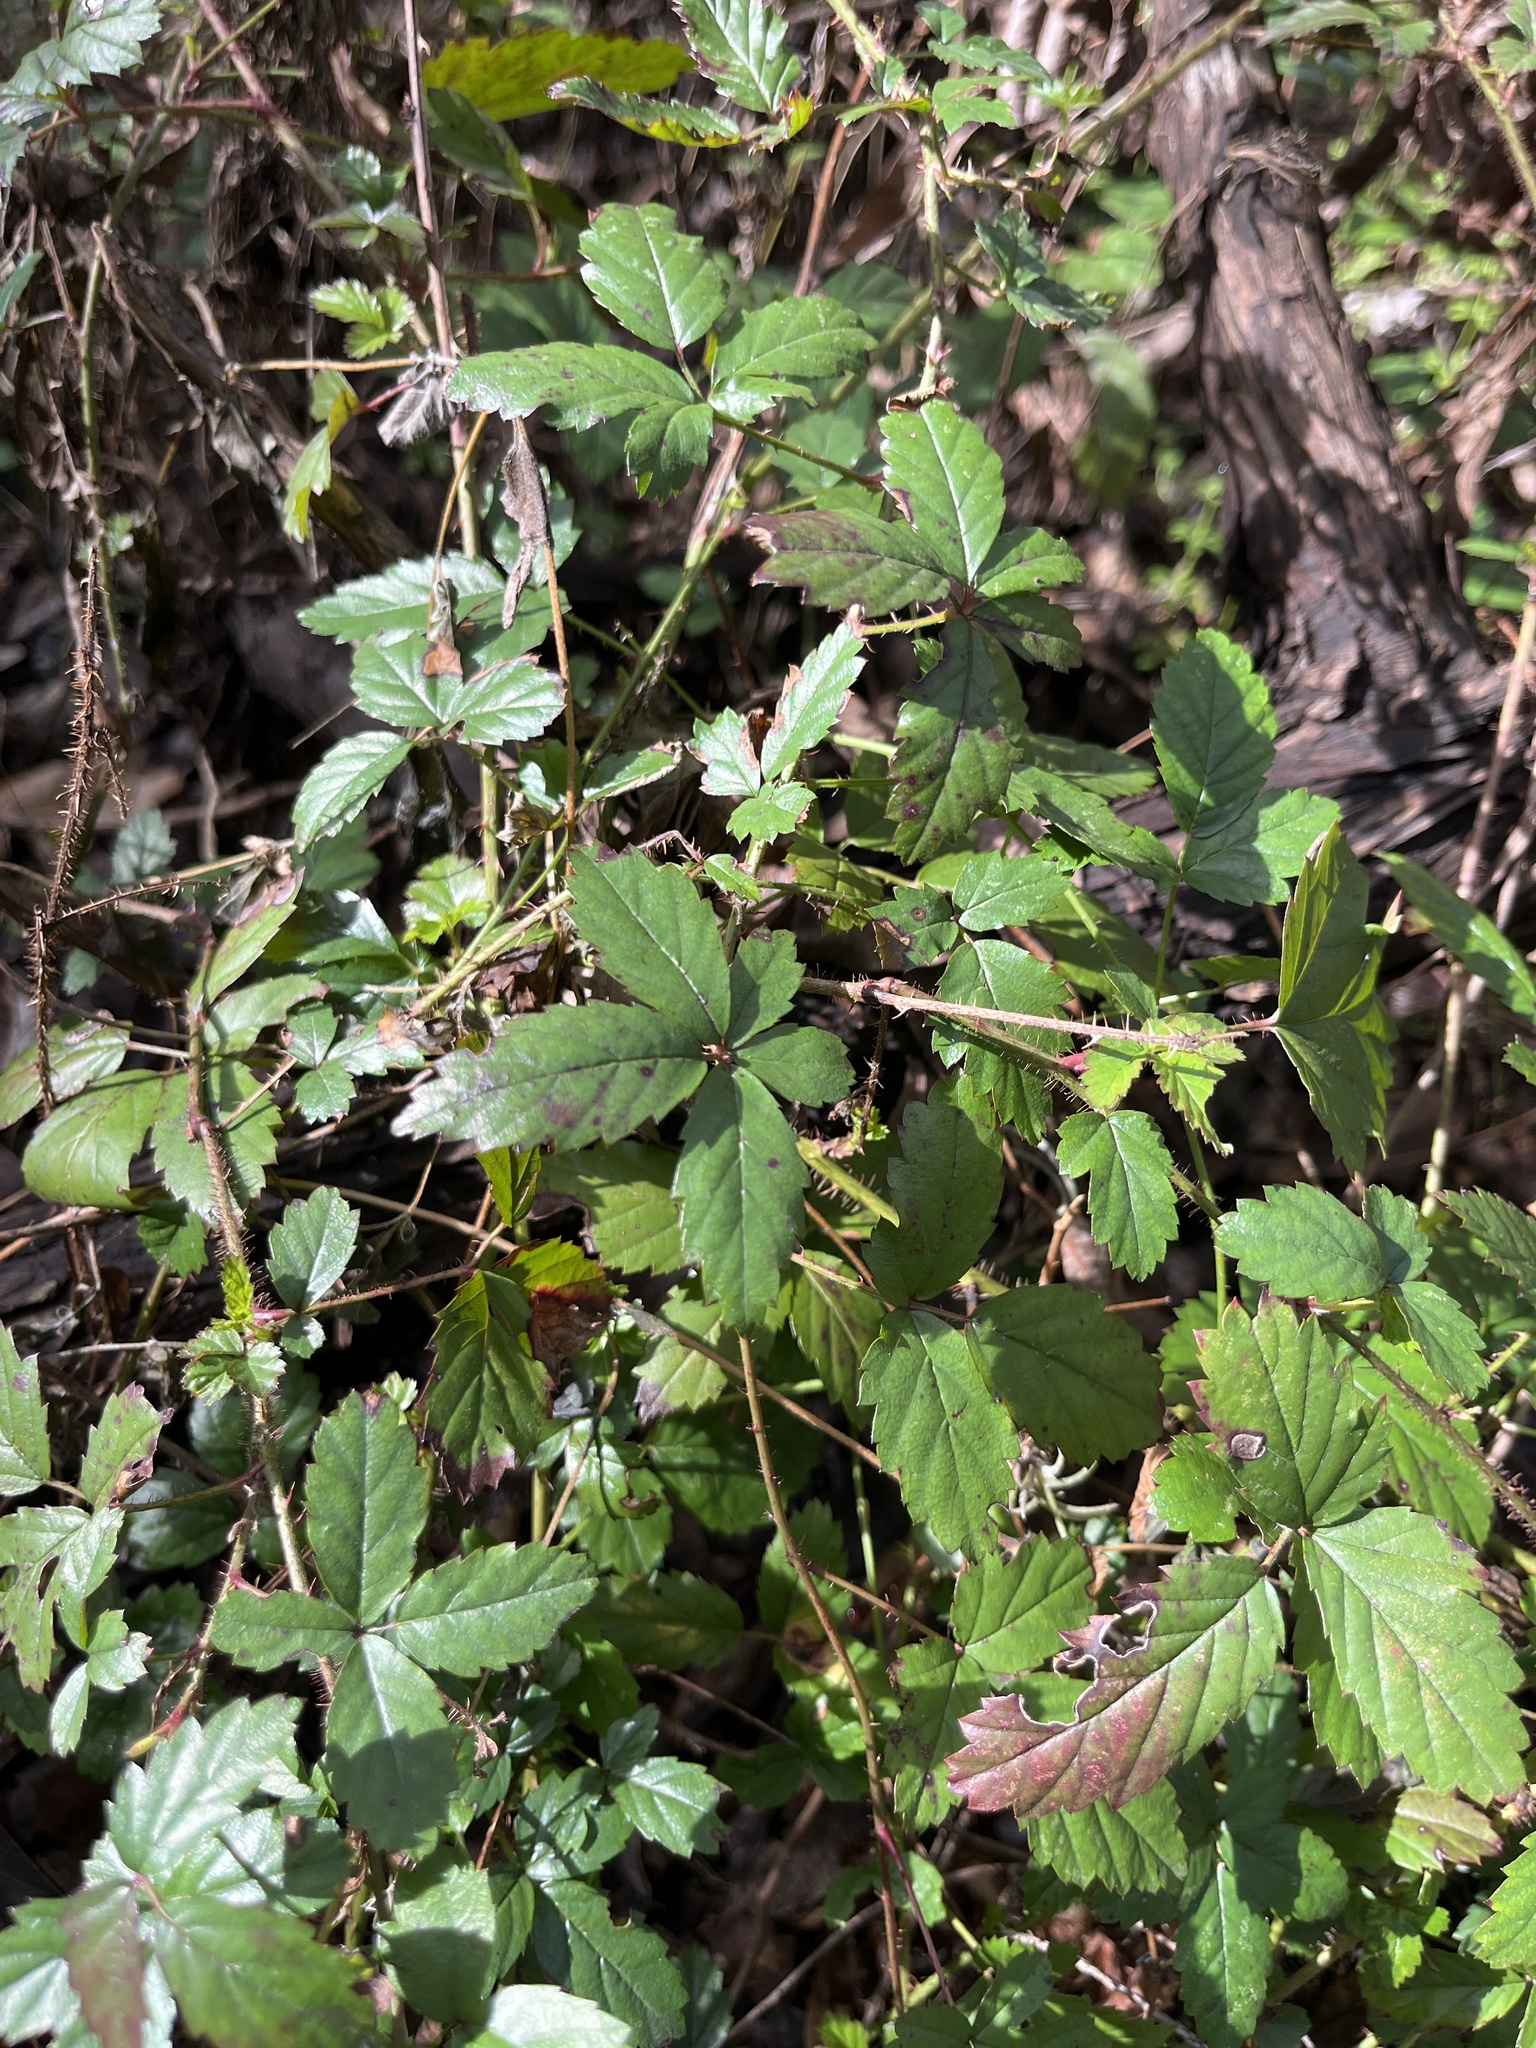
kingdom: Plantae
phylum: Tracheophyta
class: Magnoliopsida
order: Rosales
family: Rosaceae
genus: Rubus
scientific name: Rubus trivialis
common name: Southern dewberry
